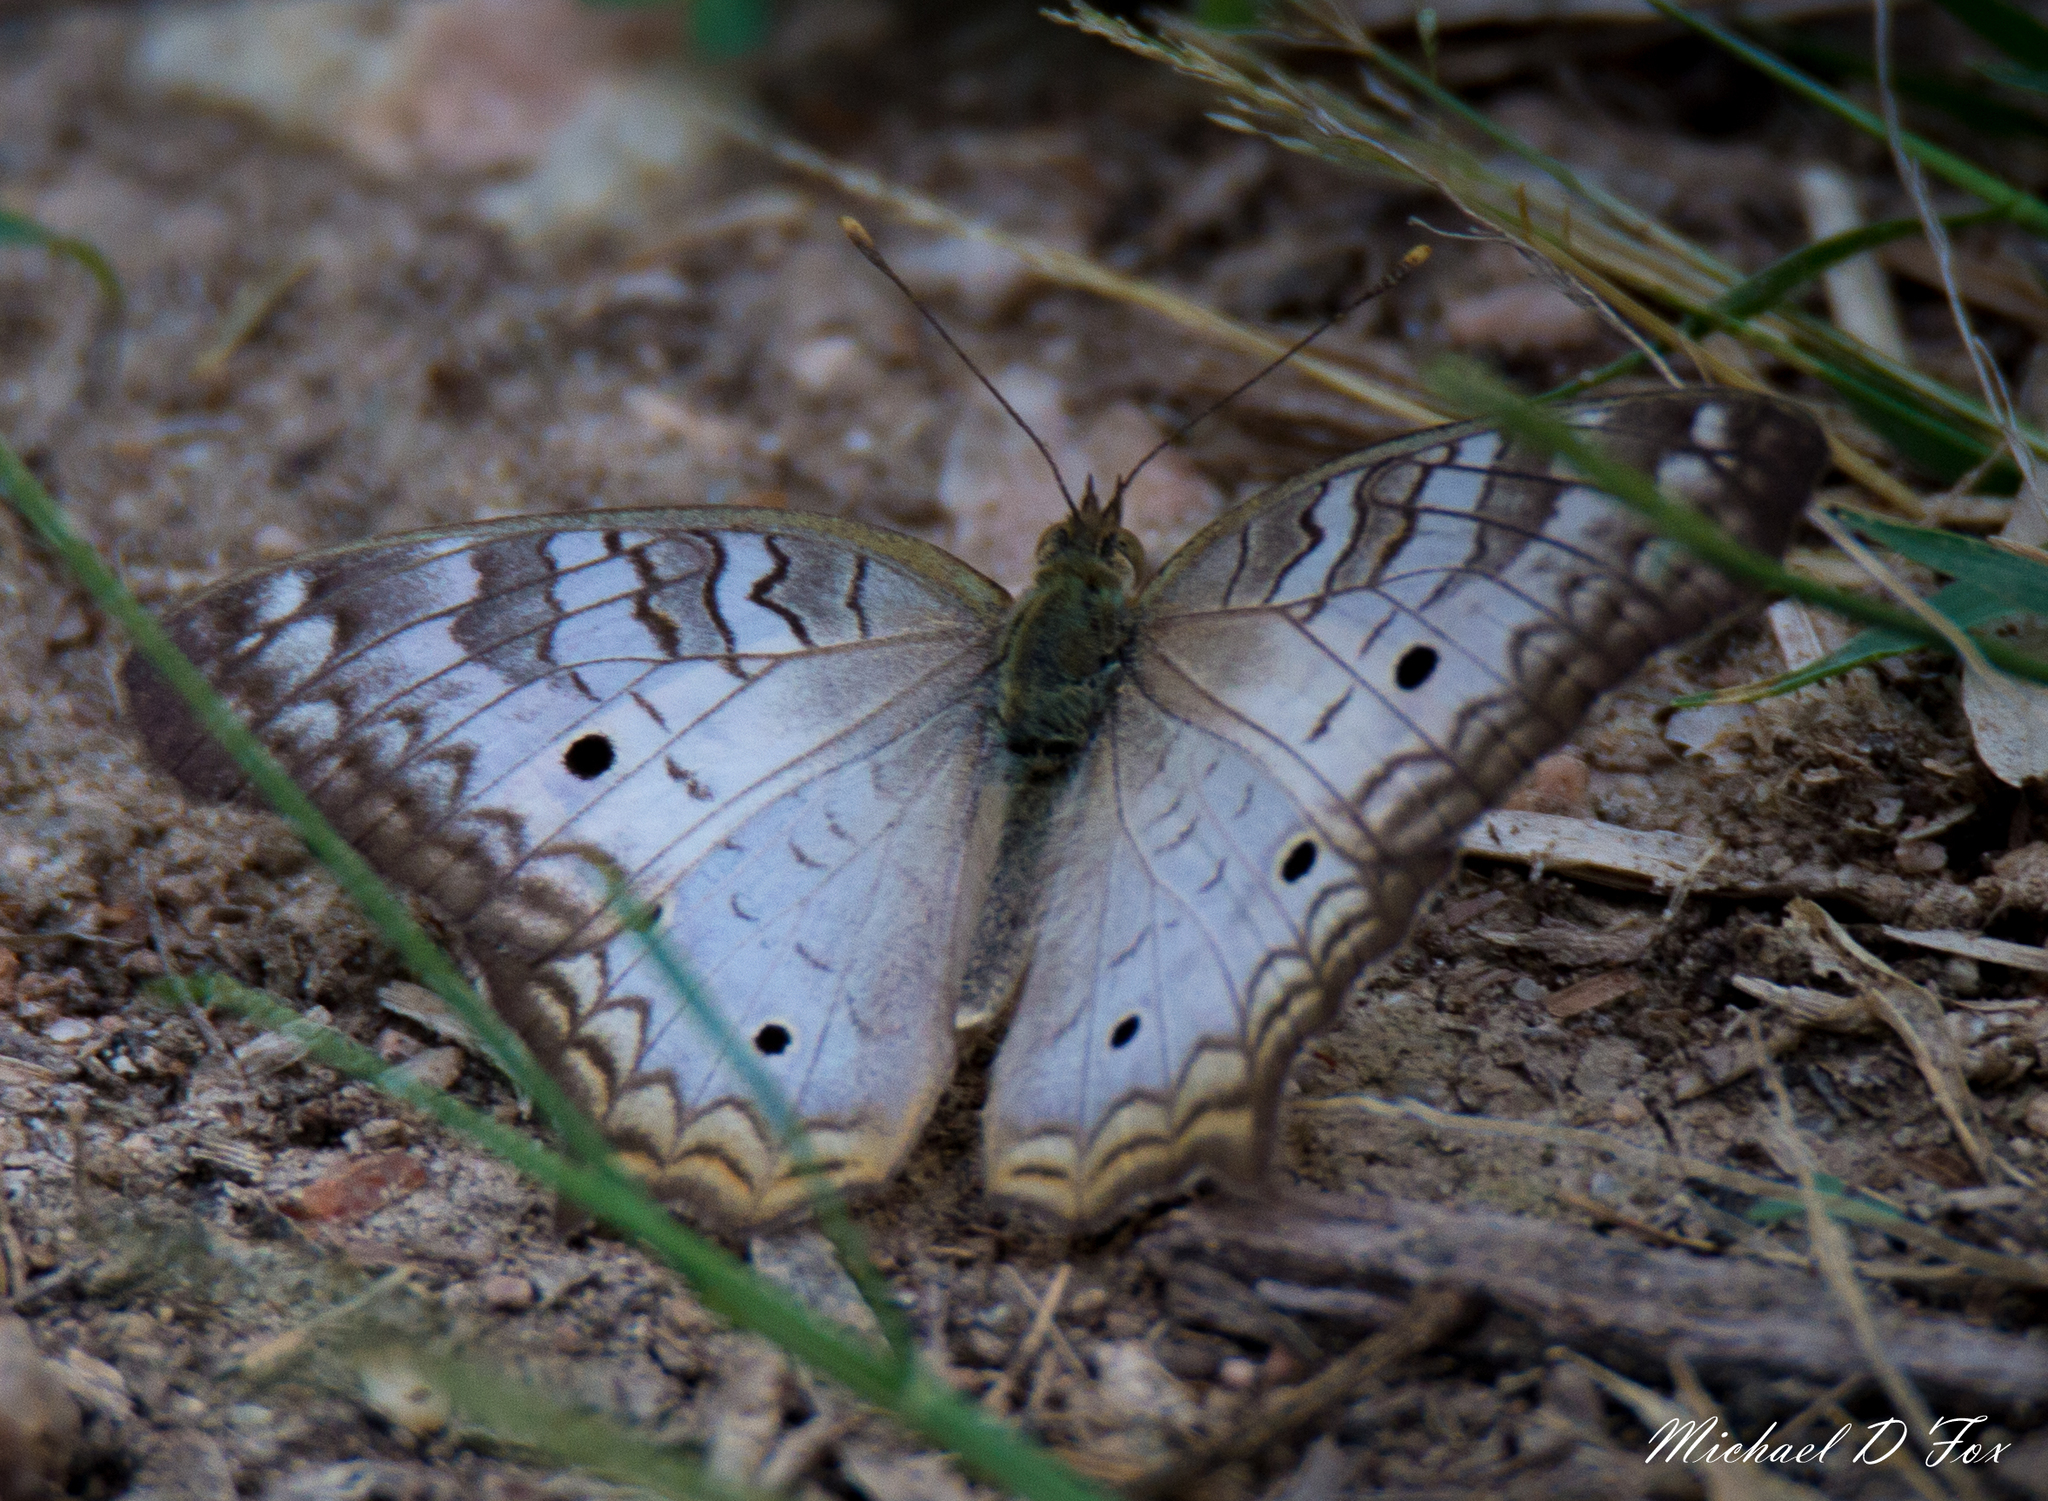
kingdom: Animalia
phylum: Arthropoda
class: Insecta
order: Lepidoptera
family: Nymphalidae
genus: Anartia
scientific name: Anartia jatrophae
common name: White peacock
